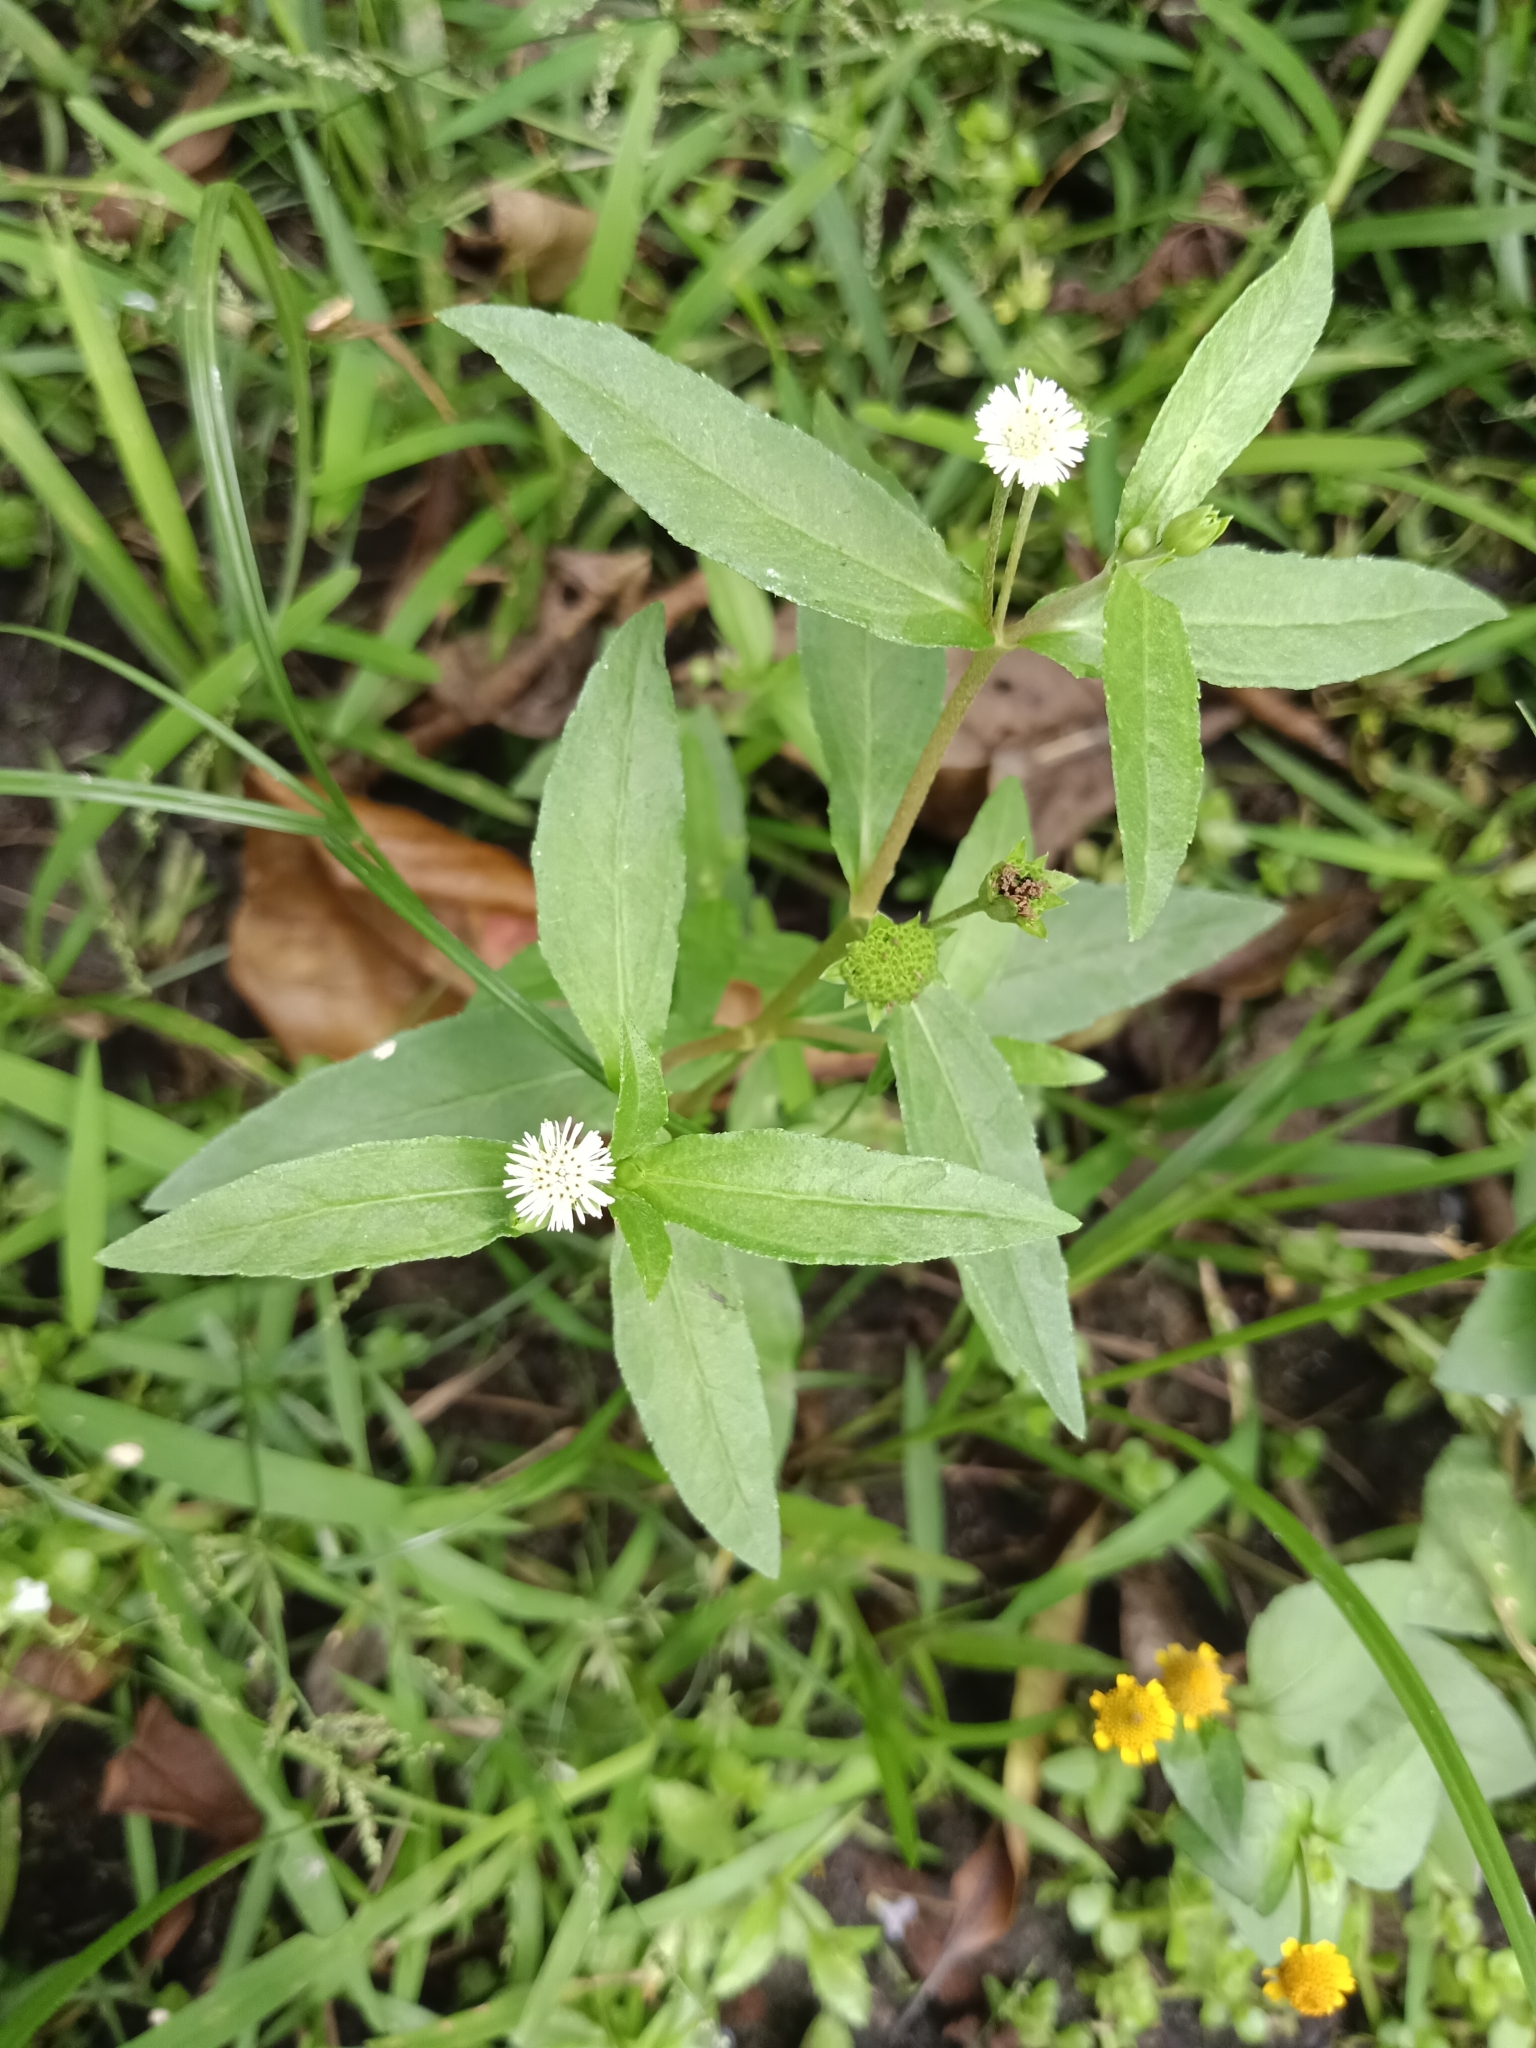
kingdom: Plantae
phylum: Tracheophyta
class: Magnoliopsida
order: Asterales
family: Asteraceae
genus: Eclipta
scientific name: Eclipta prostrata
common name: False daisy
